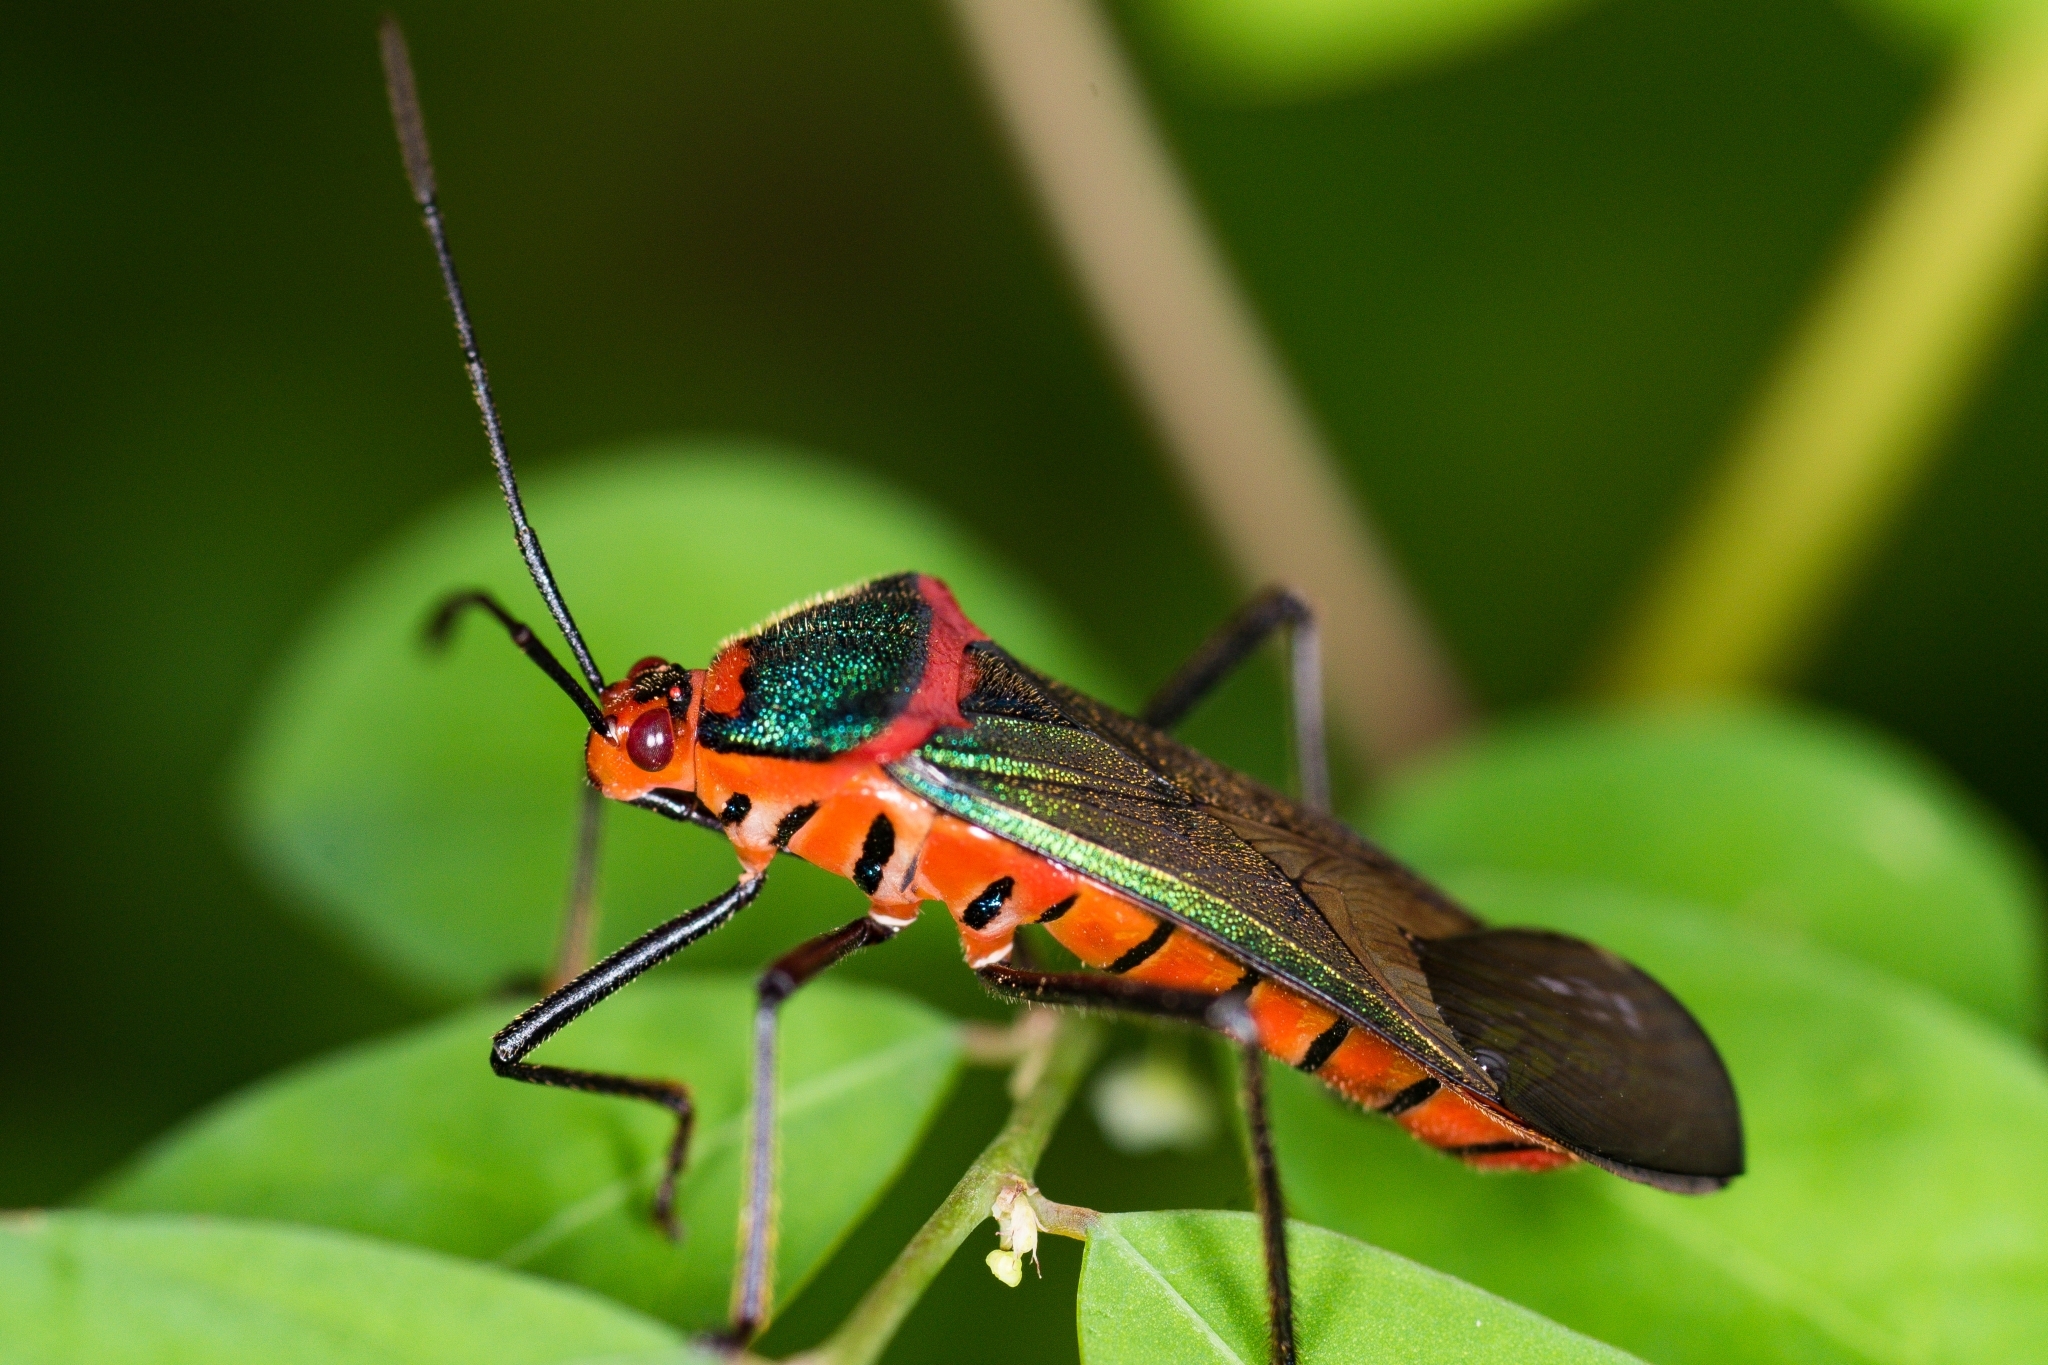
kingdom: Animalia
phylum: Arthropoda
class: Insecta
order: Hemiptera
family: Coreidae
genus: Sphictyrtus
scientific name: Sphictyrtus chrysis
